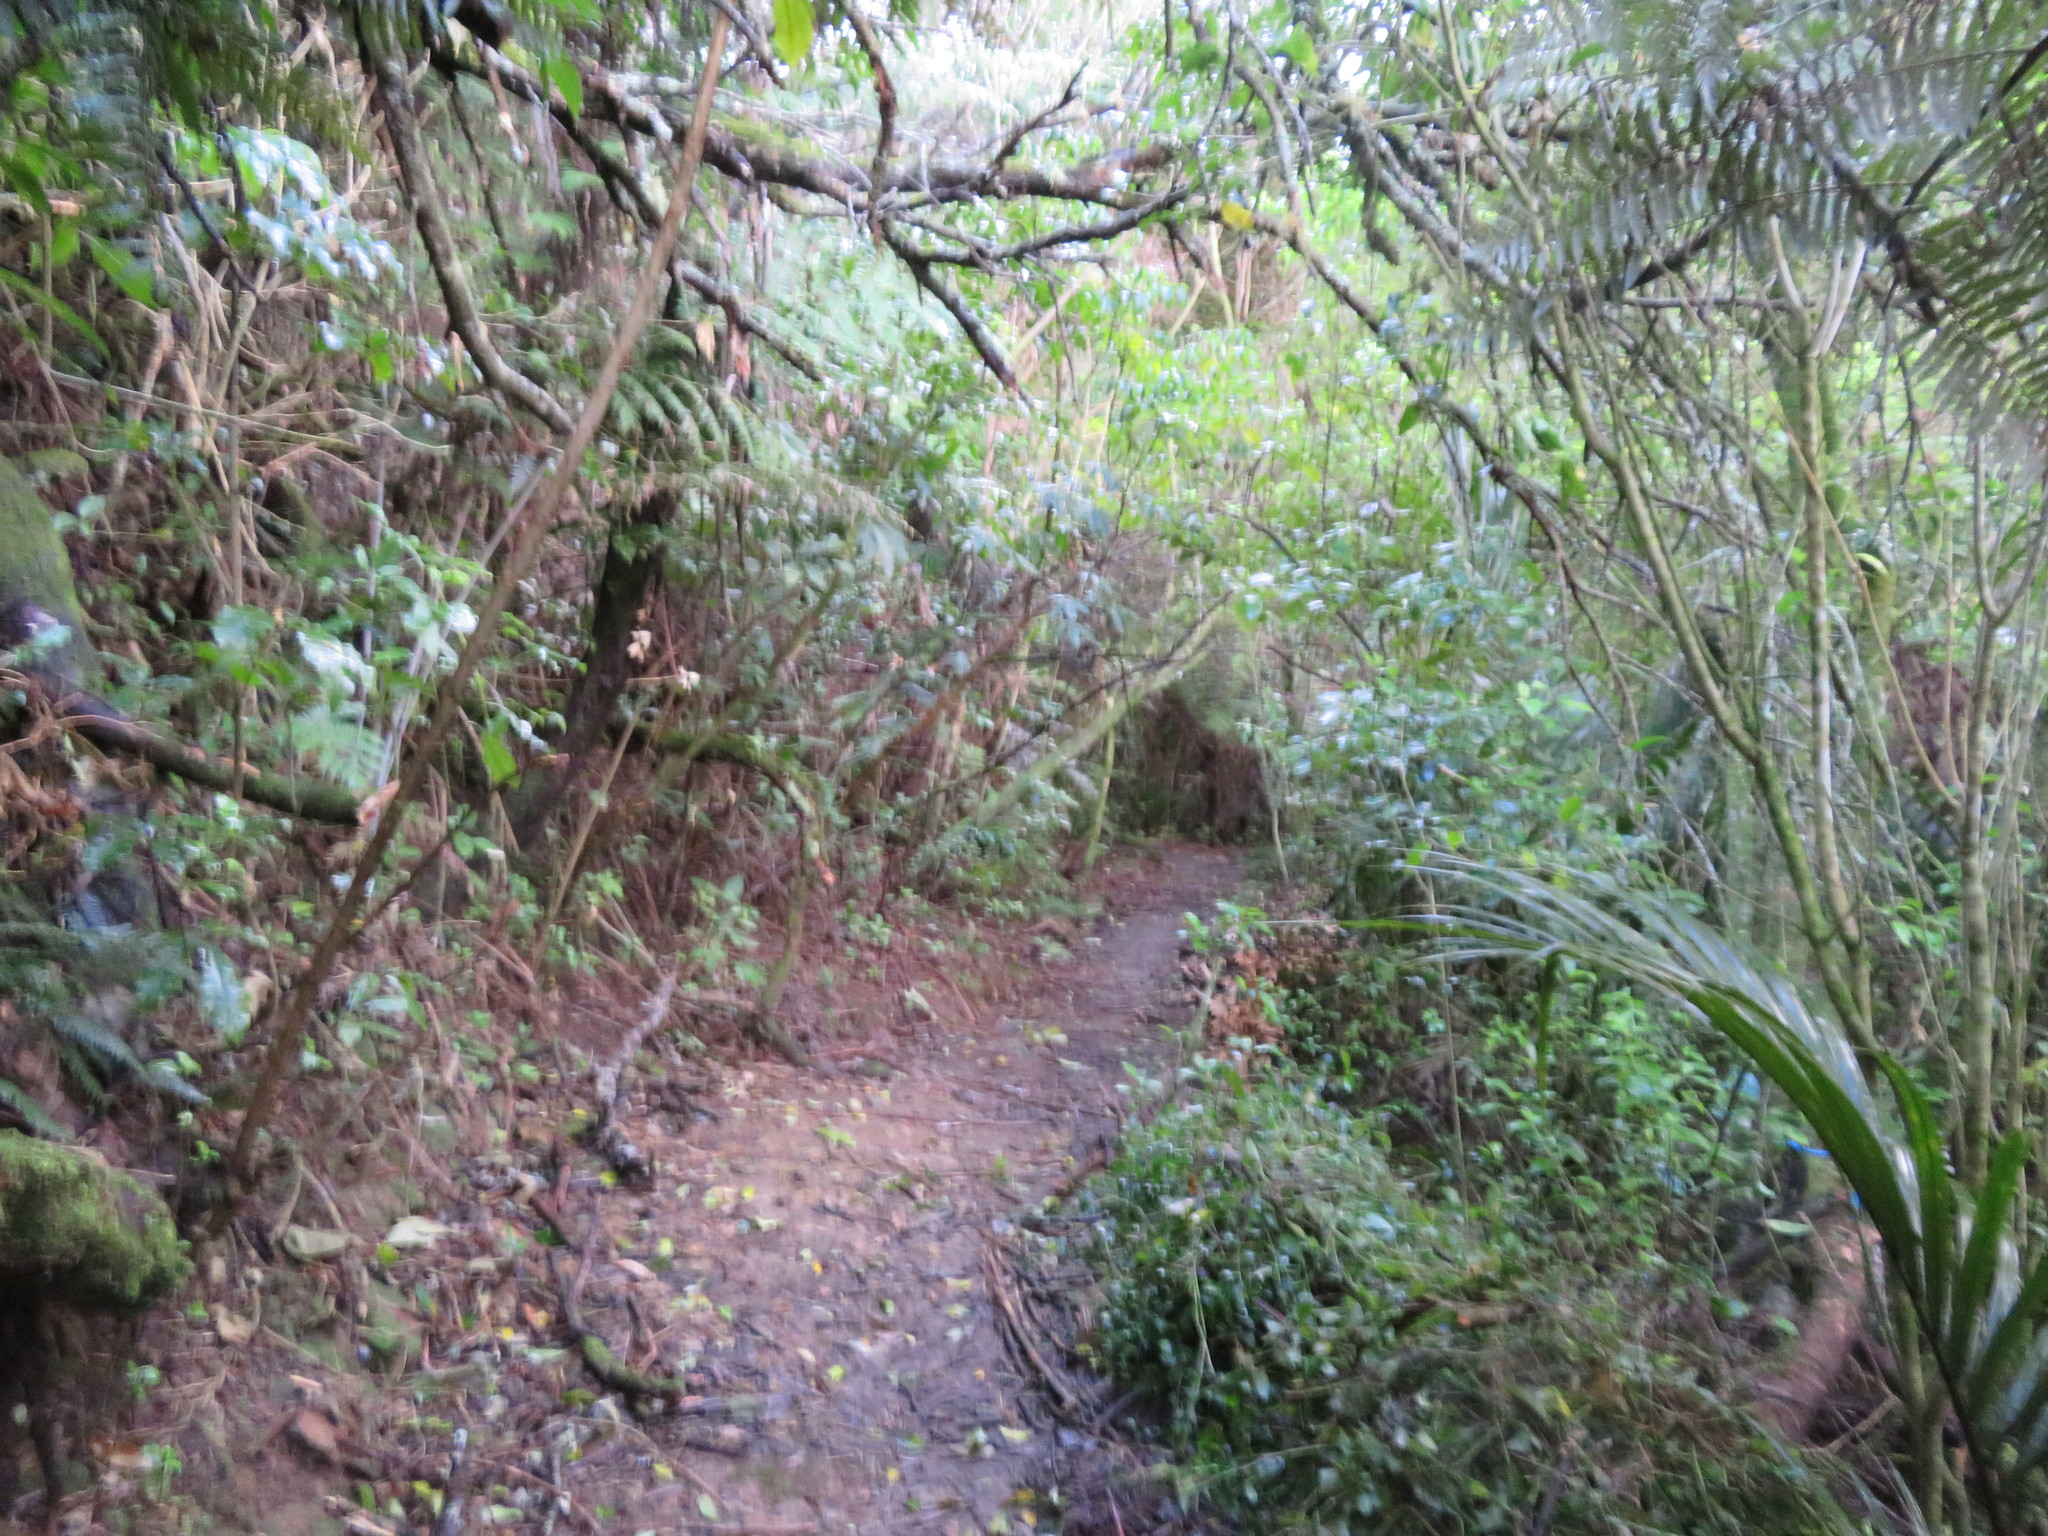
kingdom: Plantae
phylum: Tracheophyta
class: Liliopsida
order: Commelinales
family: Commelinaceae
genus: Tradescantia
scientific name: Tradescantia fluminensis
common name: Wandering-jew
